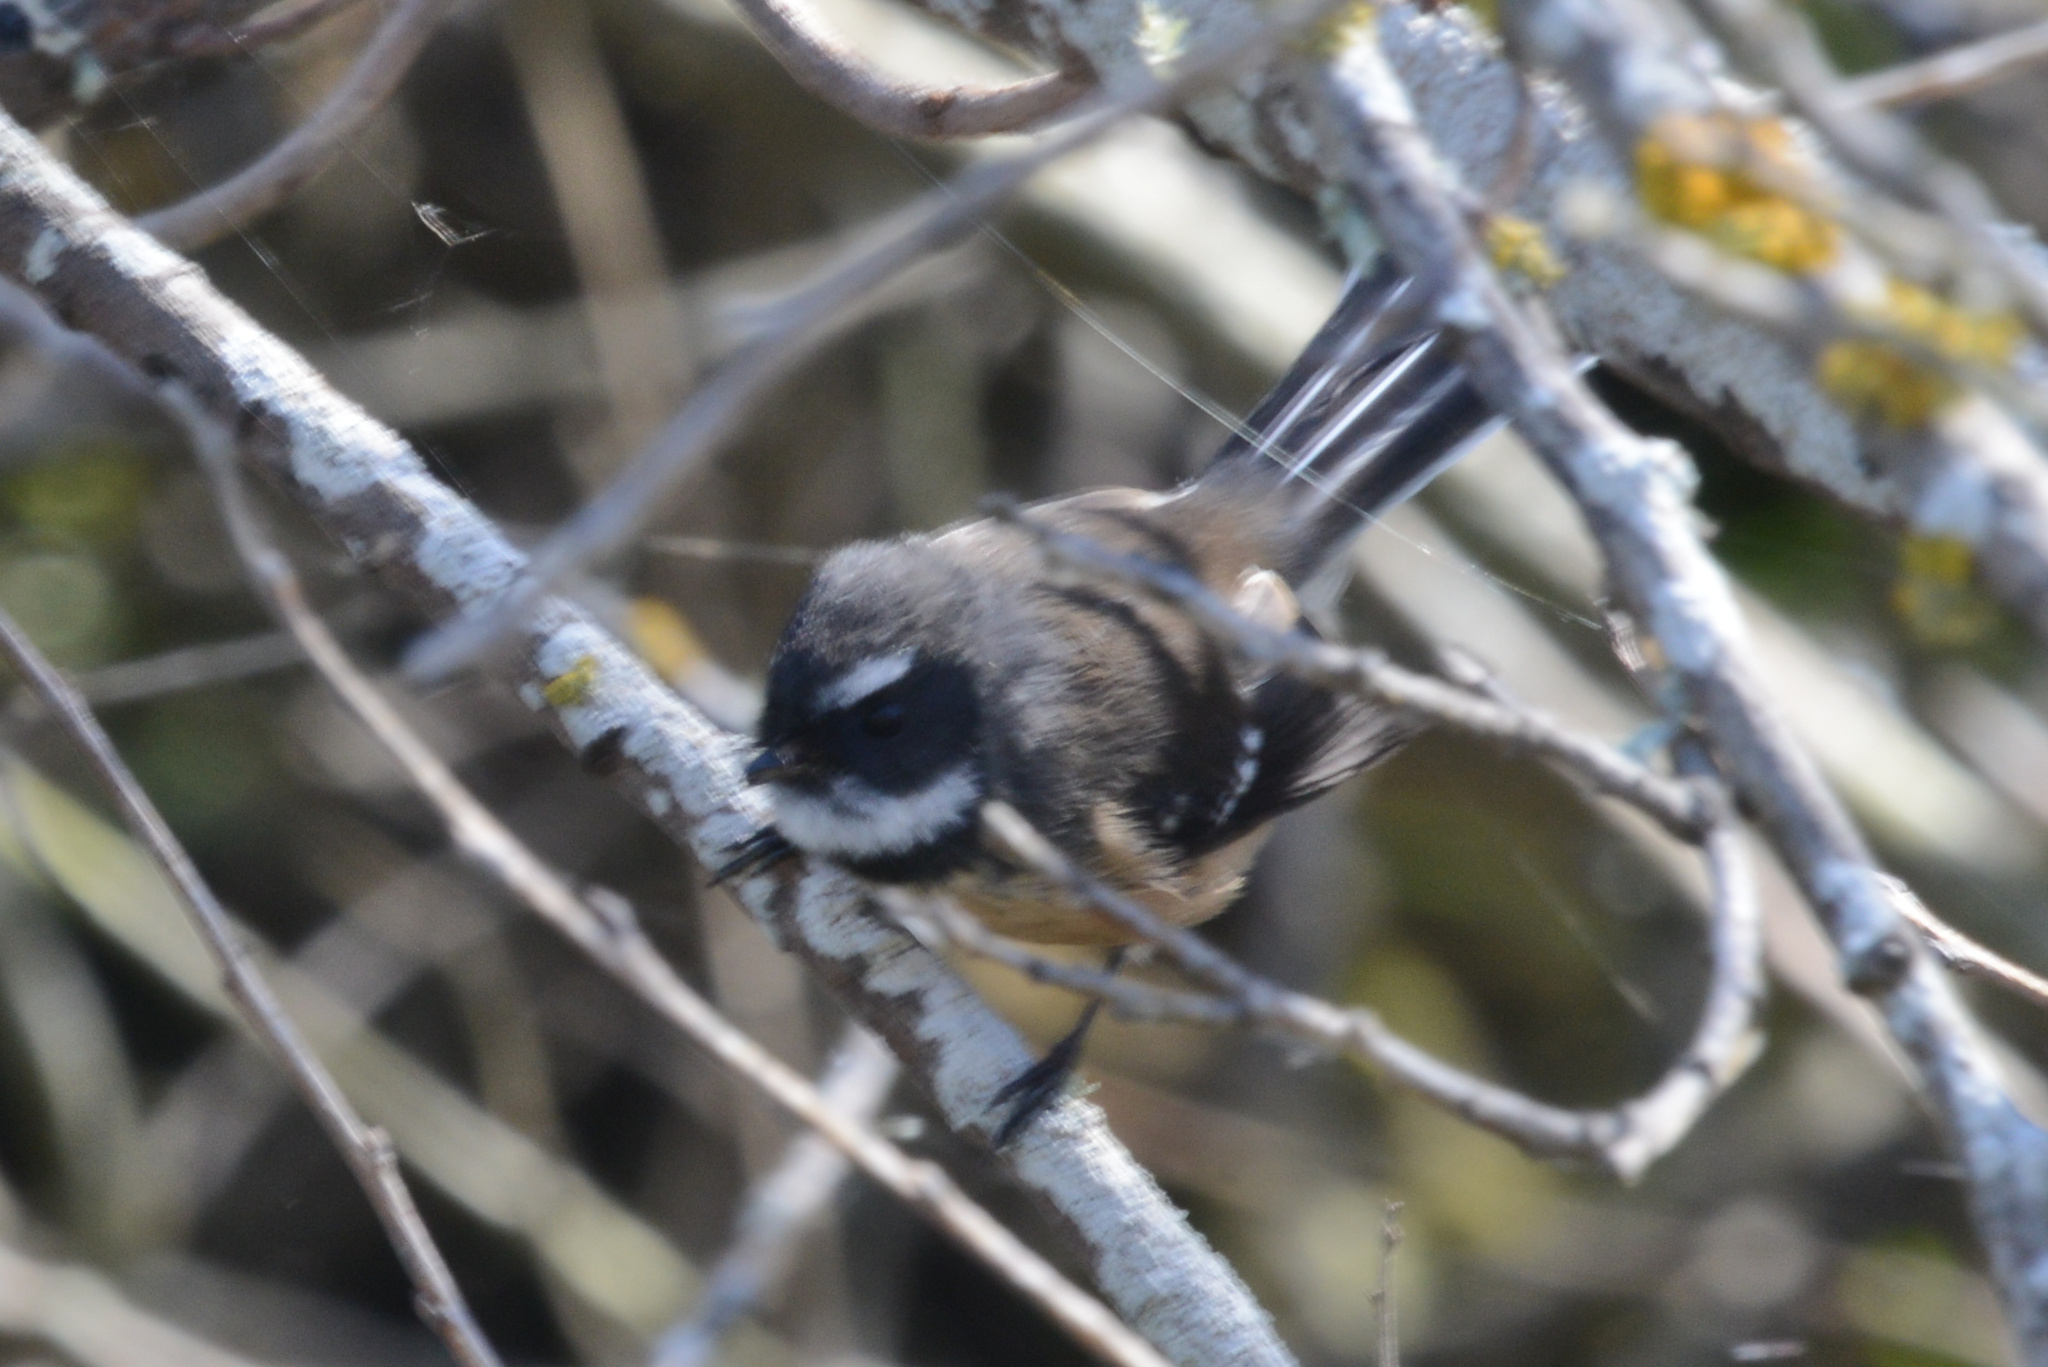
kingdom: Animalia
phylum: Chordata
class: Aves
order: Passeriformes
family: Rhipiduridae
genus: Rhipidura
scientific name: Rhipidura fuliginosa
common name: New zealand fantail
